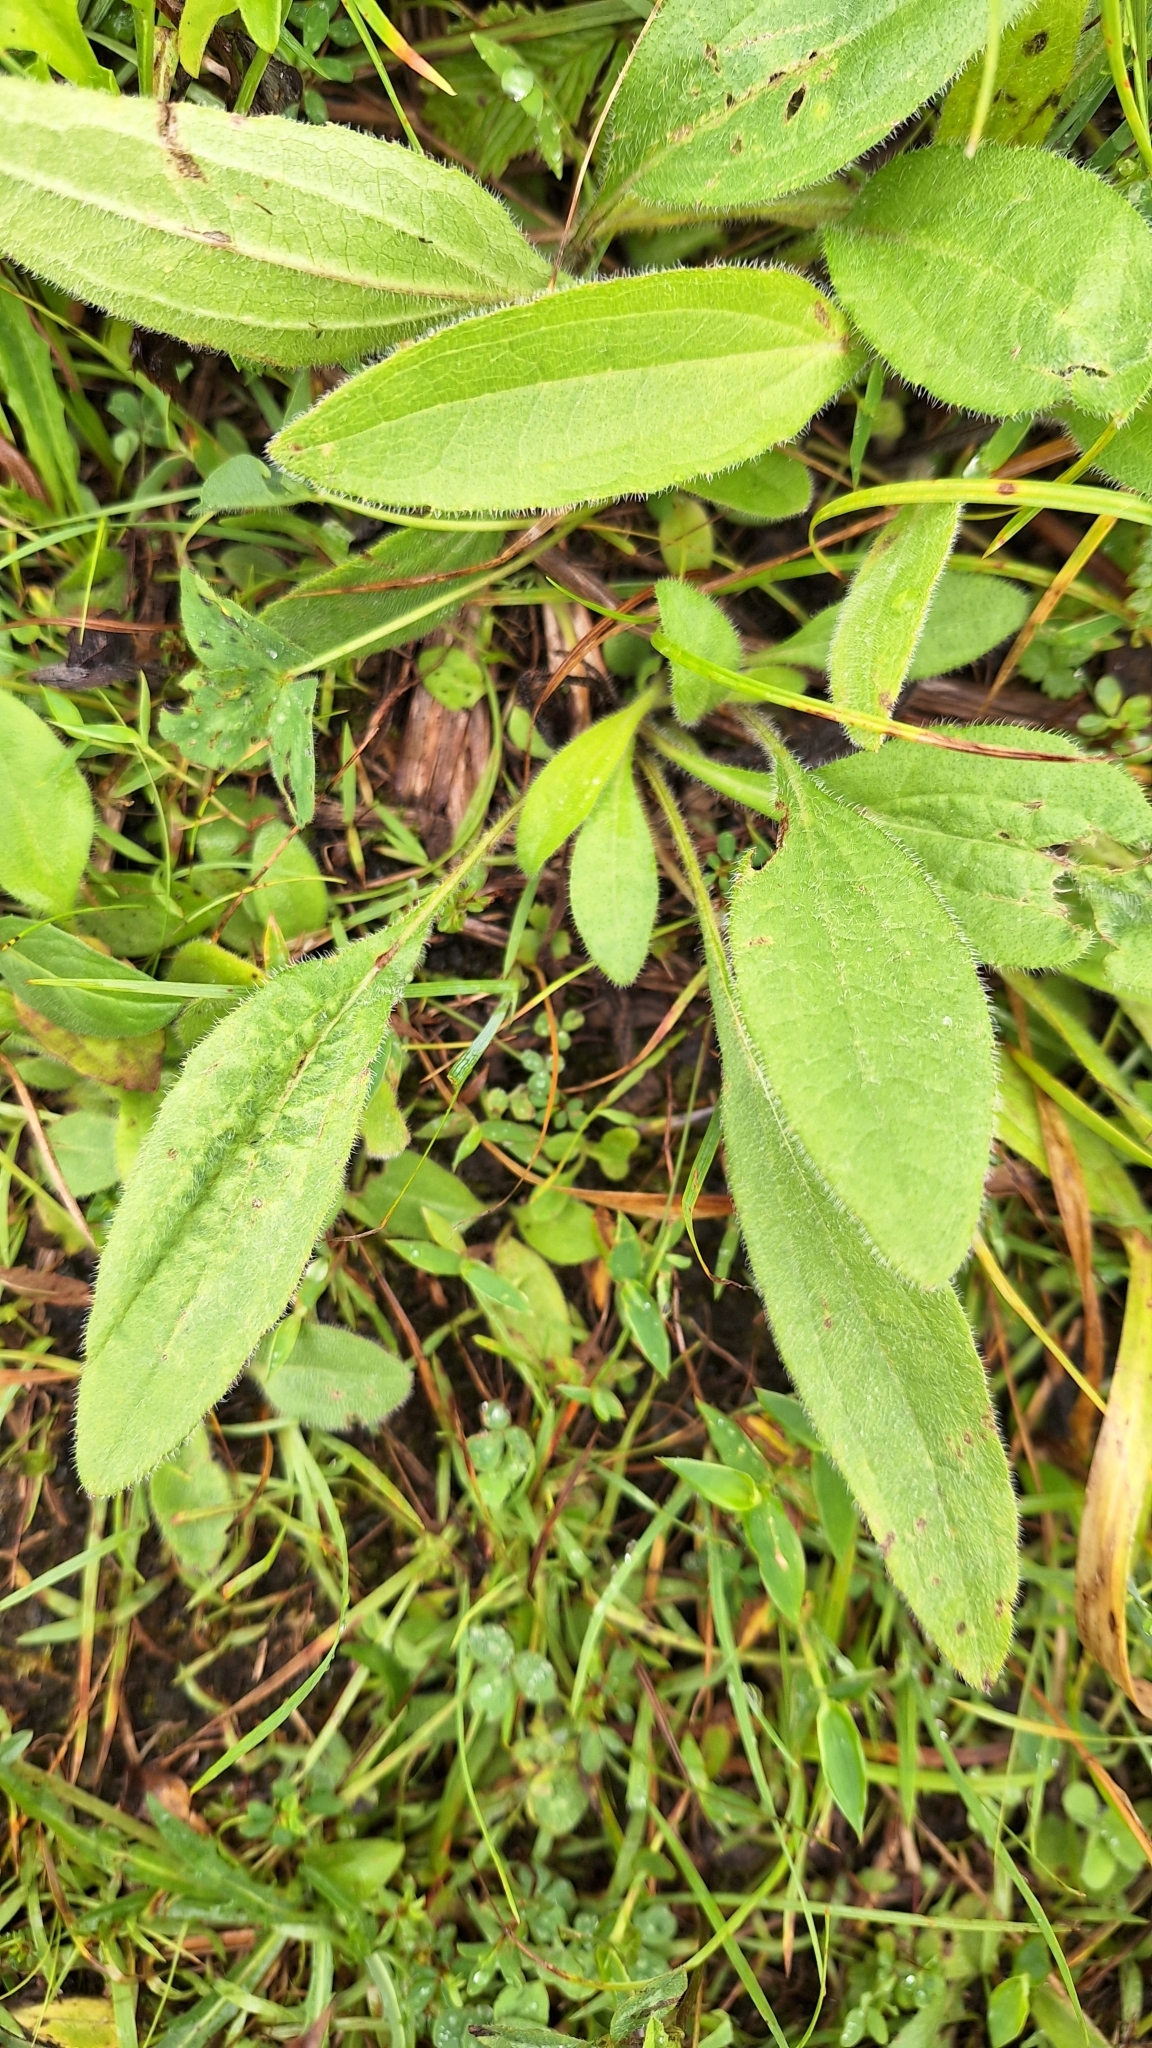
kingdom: Plantae
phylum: Tracheophyta
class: Magnoliopsida
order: Asterales
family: Asteraceae
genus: Rudbeckia
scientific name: Rudbeckia hirta
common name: Black-eyed-susan
